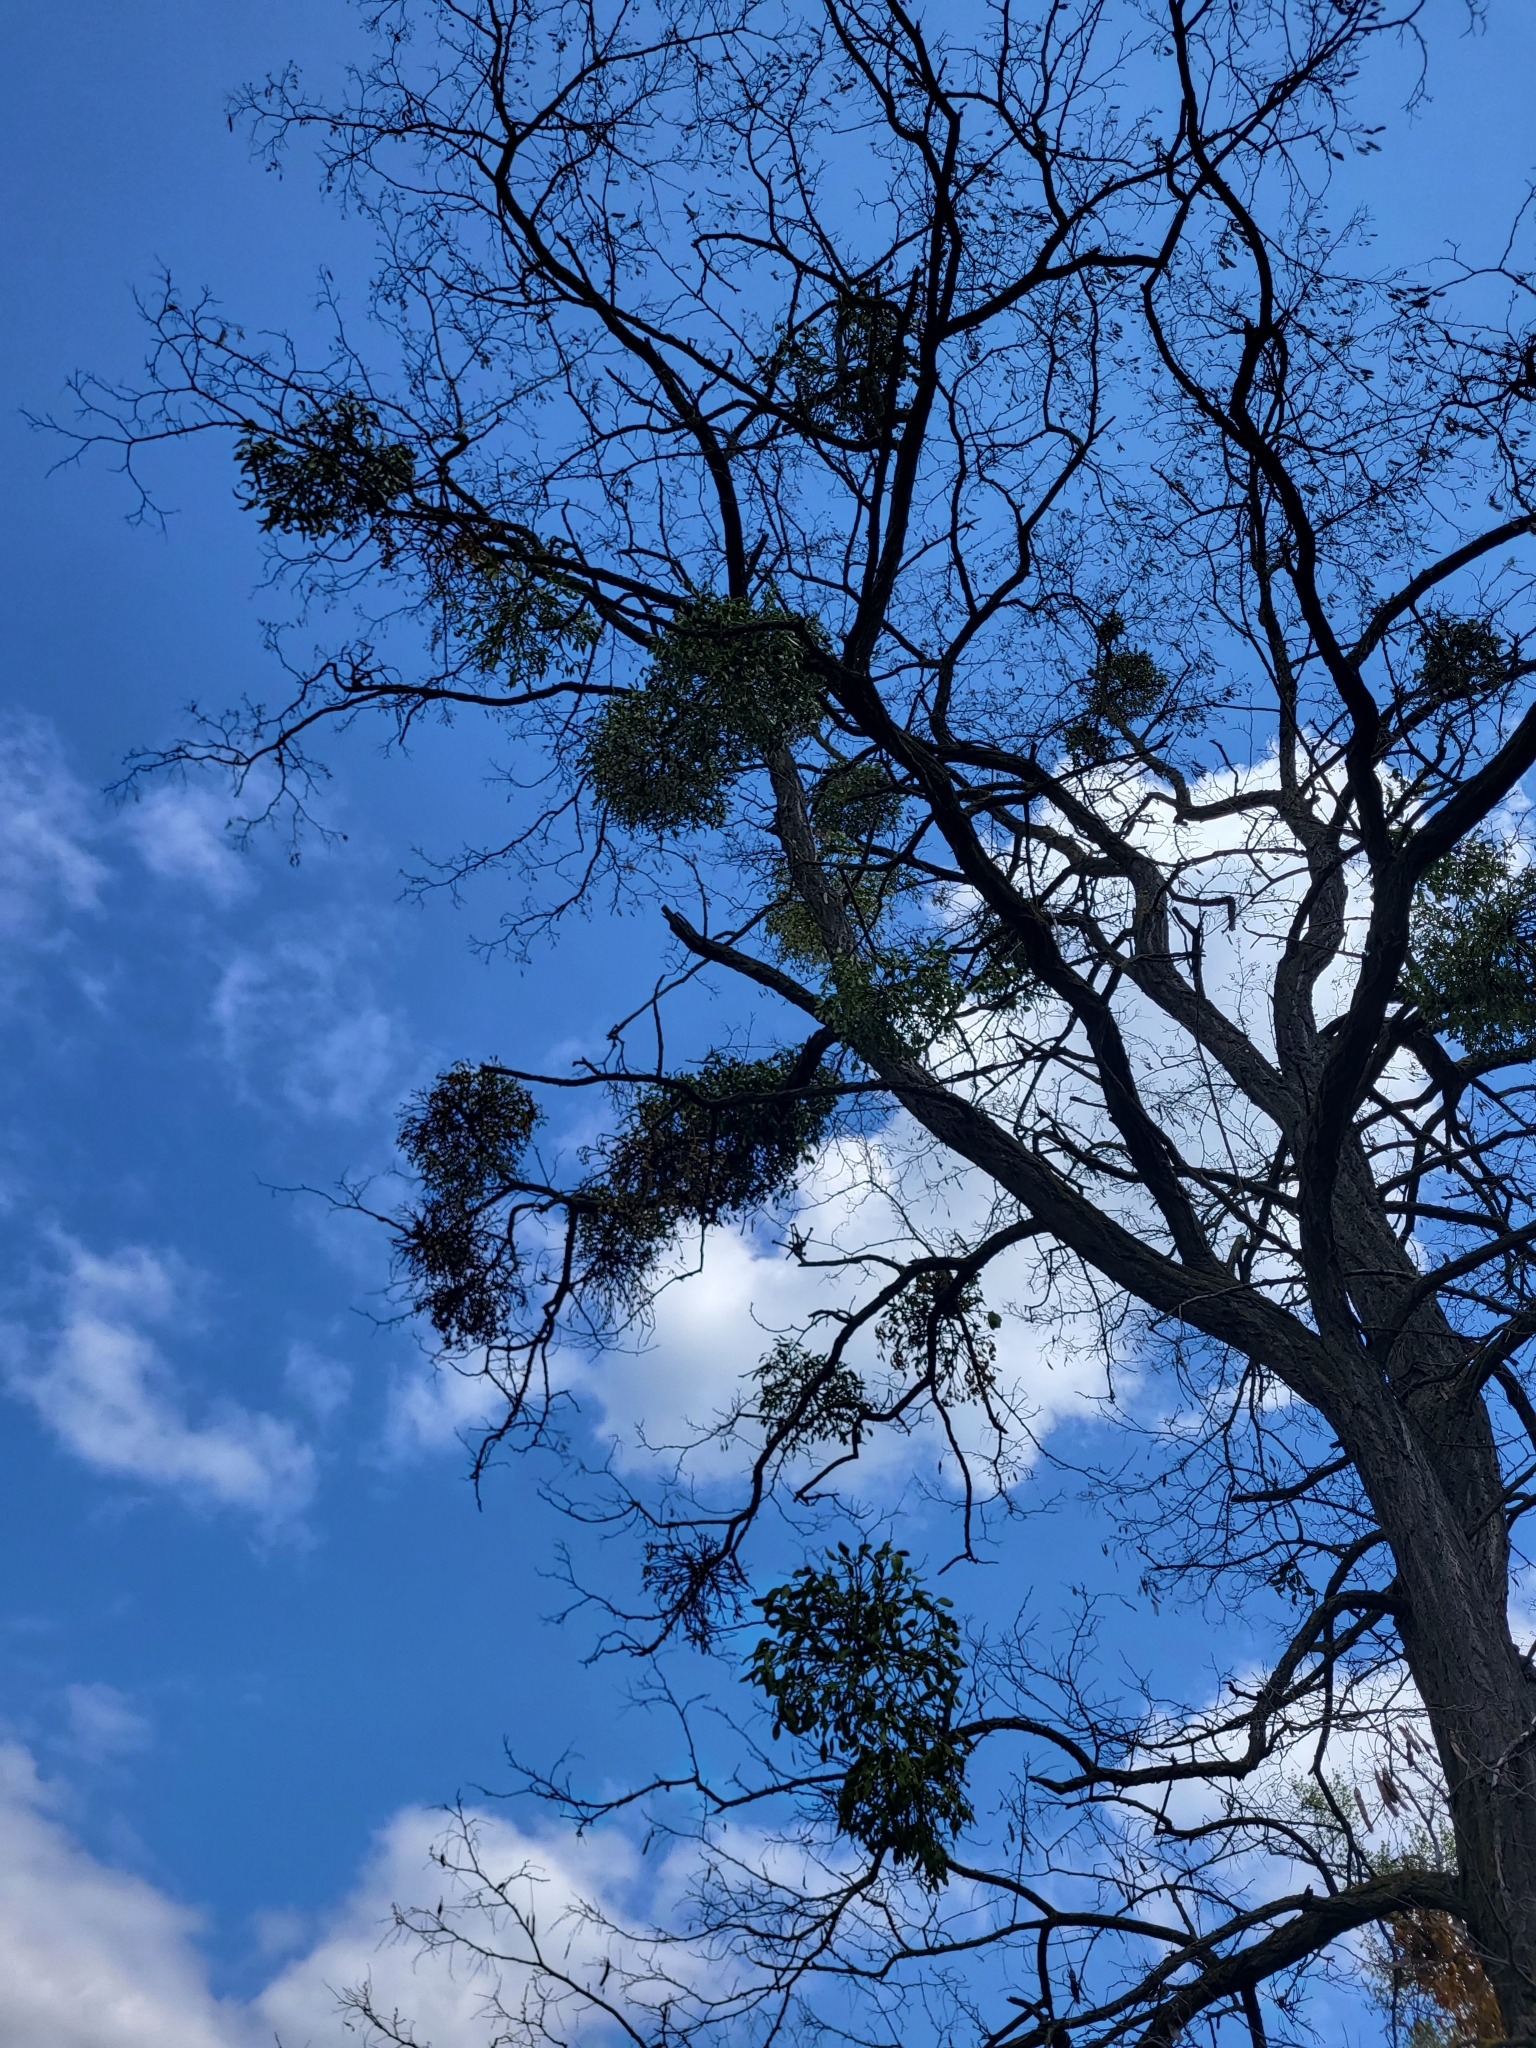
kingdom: Plantae
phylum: Tracheophyta
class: Magnoliopsida
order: Santalales
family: Viscaceae
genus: Viscum
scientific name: Viscum album
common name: Mistletoe
